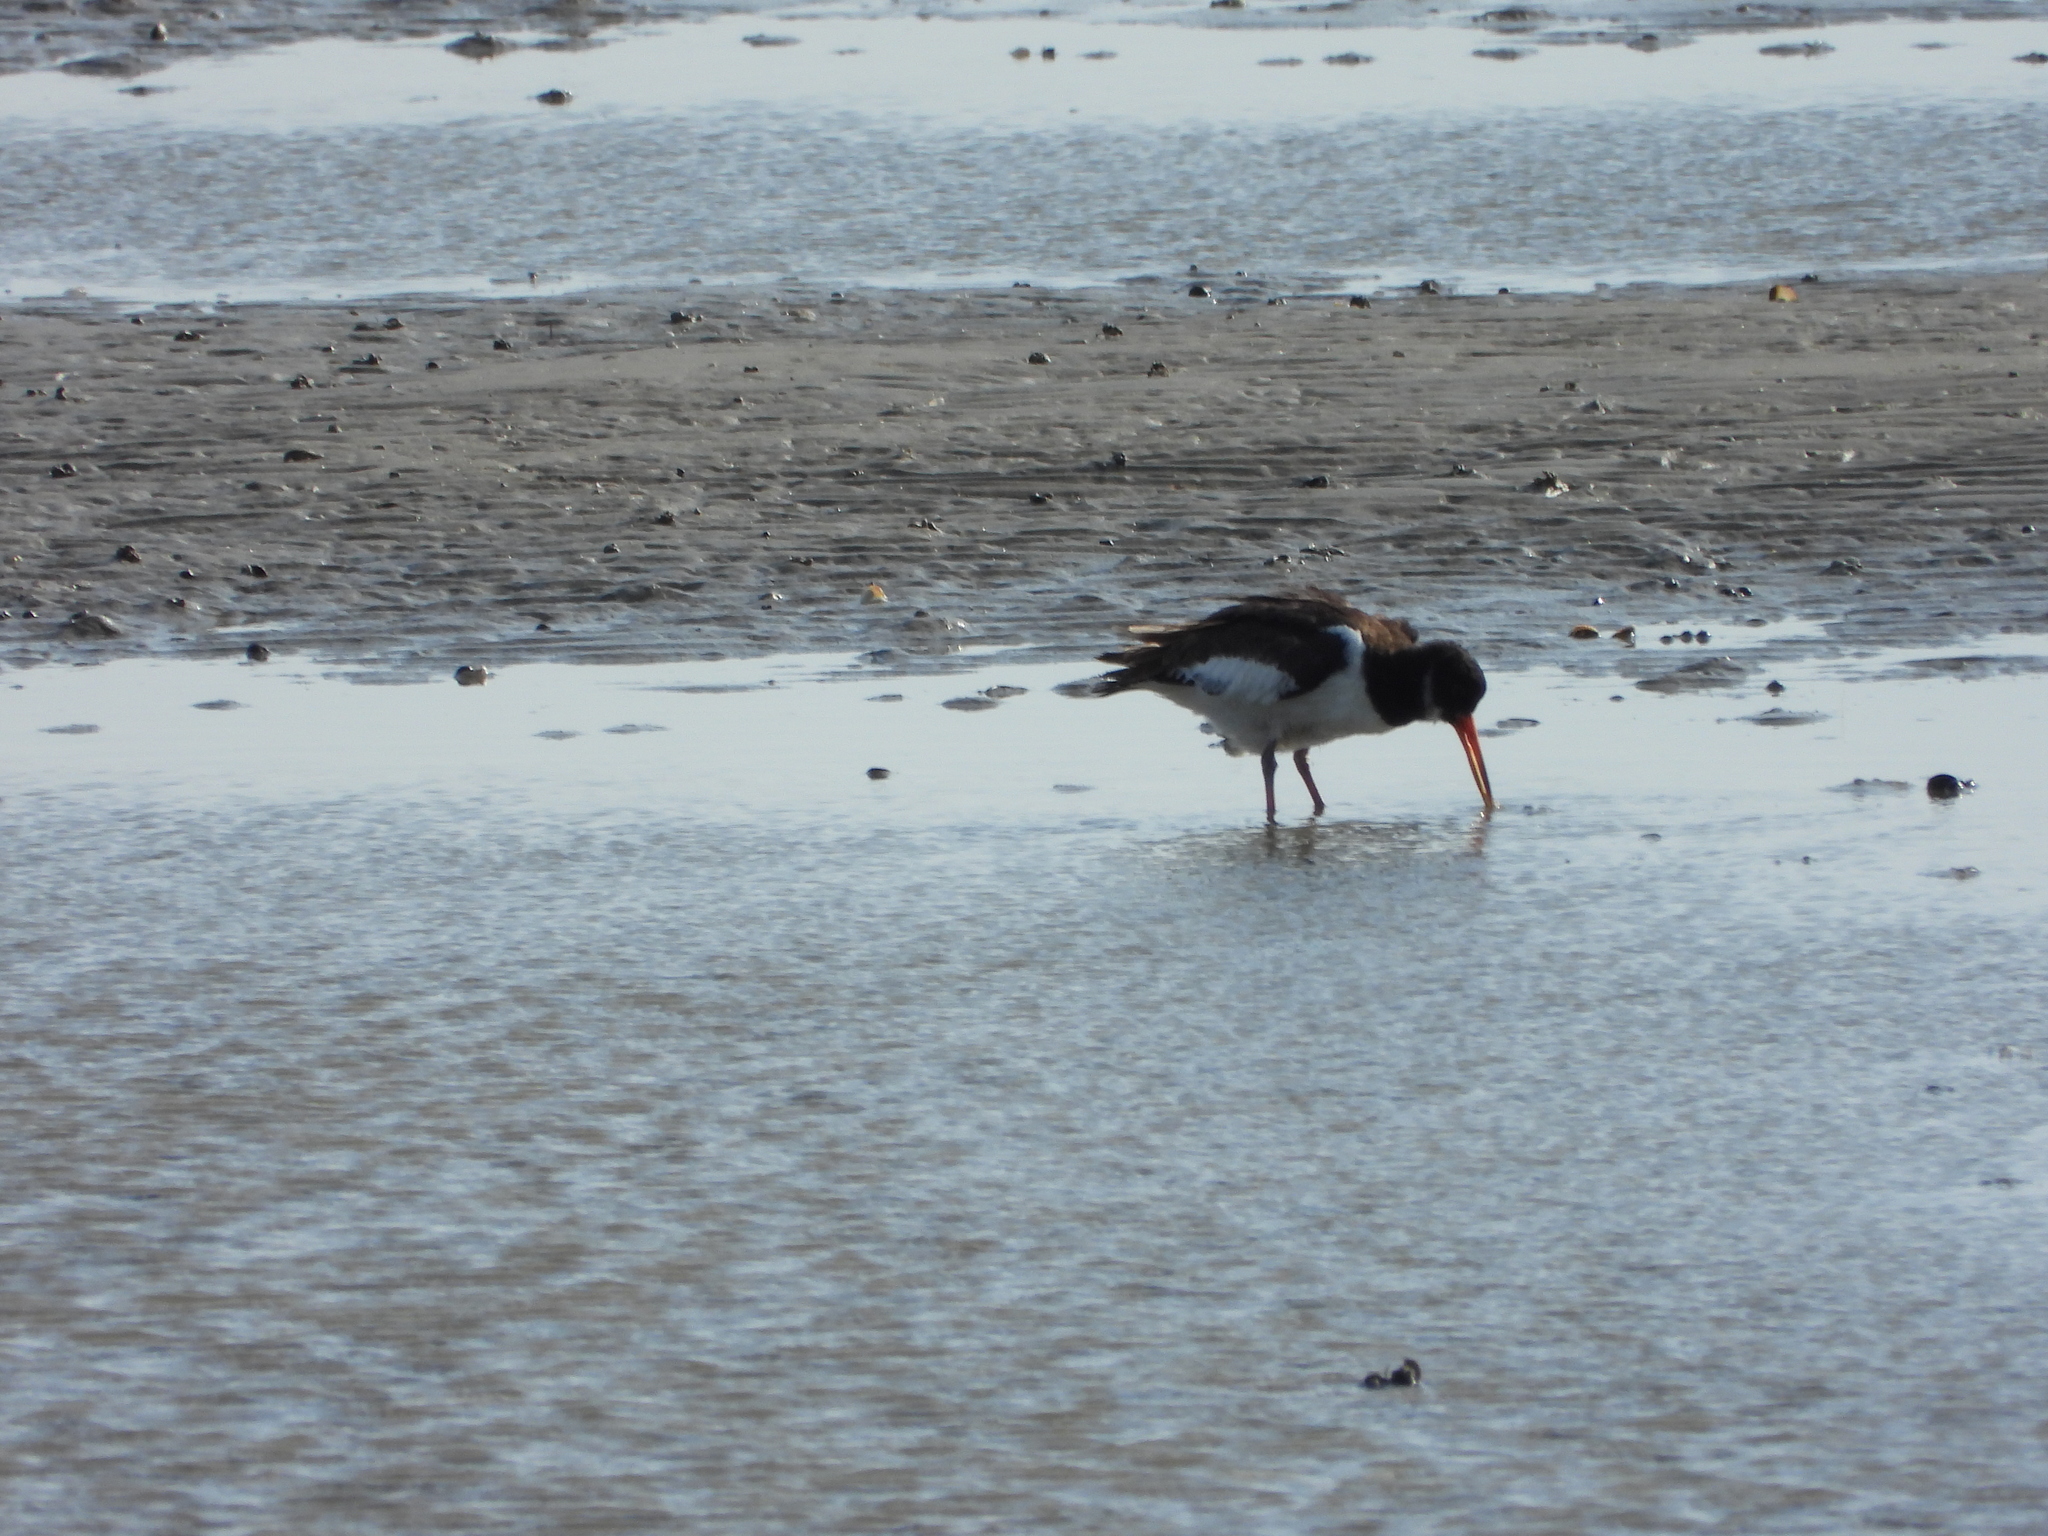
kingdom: Animalia
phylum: Chordata
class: Aves
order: Charadriiformes
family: Haematopodidae
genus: Haematopus
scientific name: Haematopus ostralegus
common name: Eurasian oystercatcher
